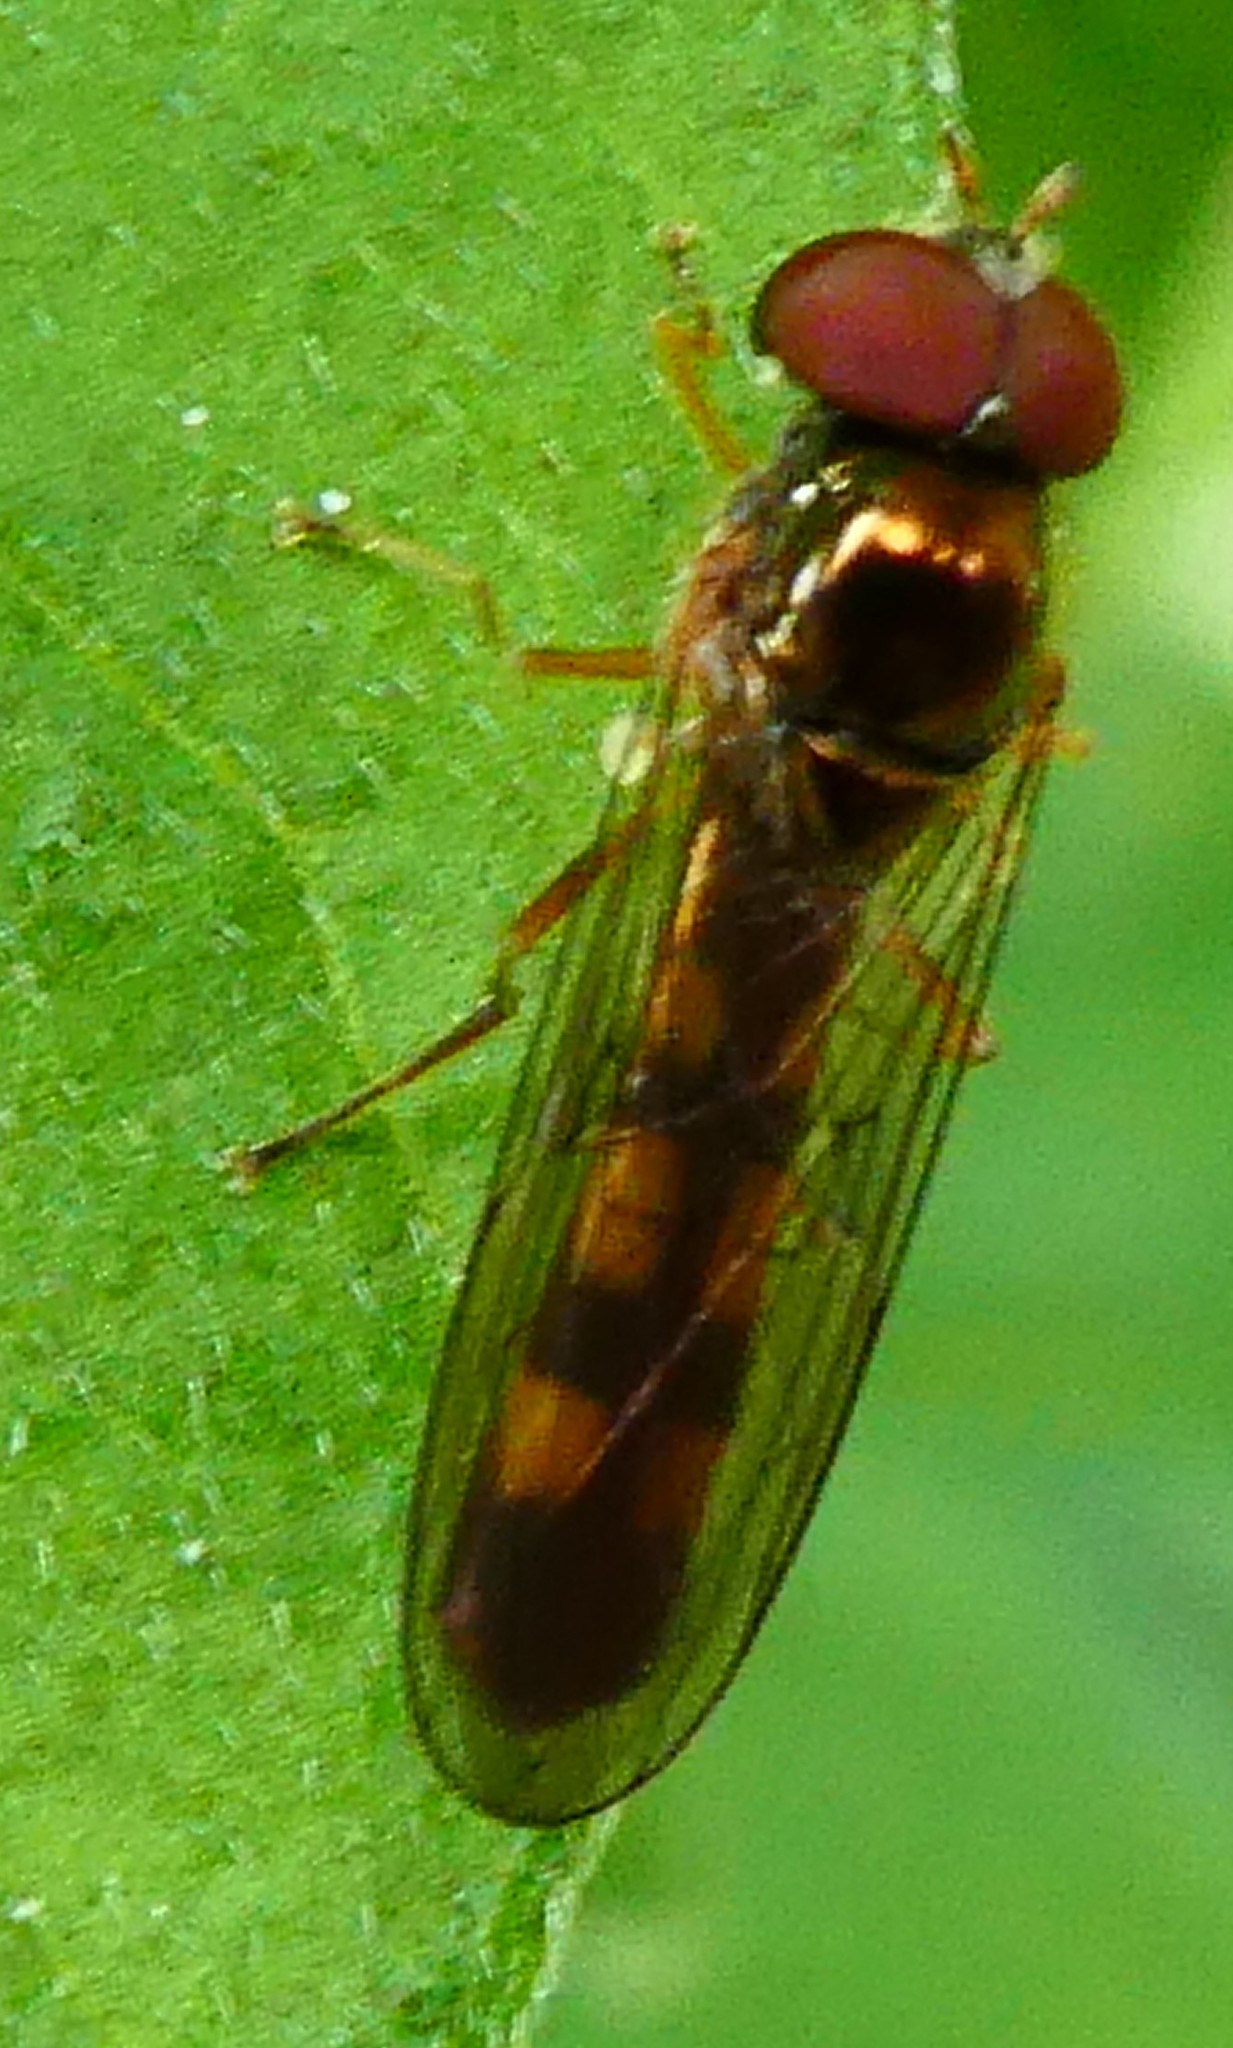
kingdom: Animalia
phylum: Arthropoda
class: Insecta
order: Diptera
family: Syrphidae
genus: Melanostoma
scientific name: Melanostoma scalare
